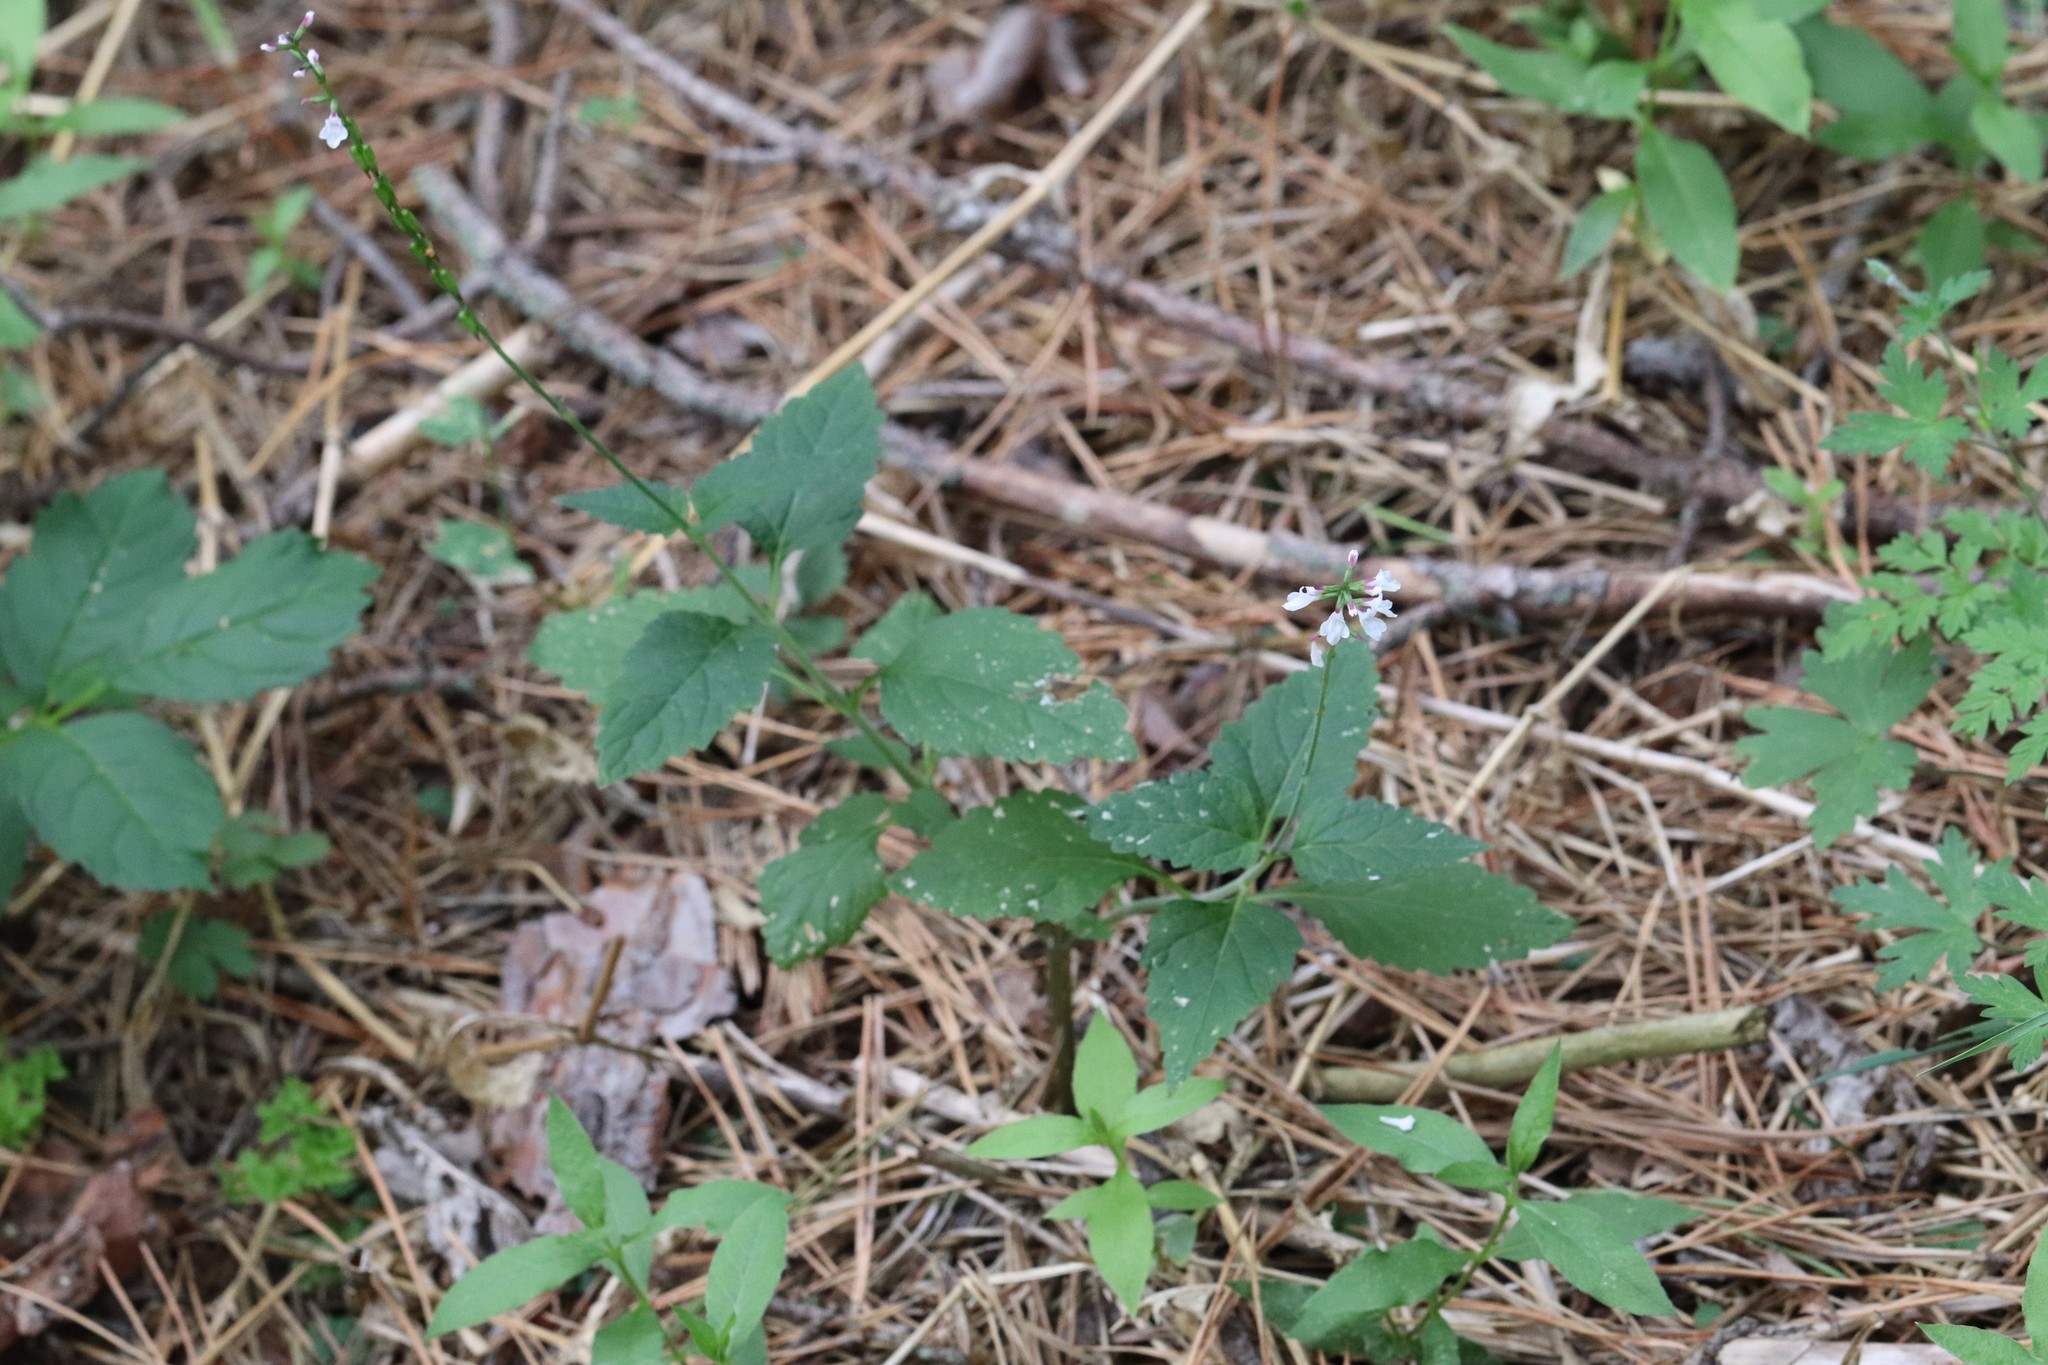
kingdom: Plantae
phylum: Tracheophyta
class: Magnoliopsida
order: Lamiales
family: Phrymaceae
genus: Phryma
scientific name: Phryma nana
